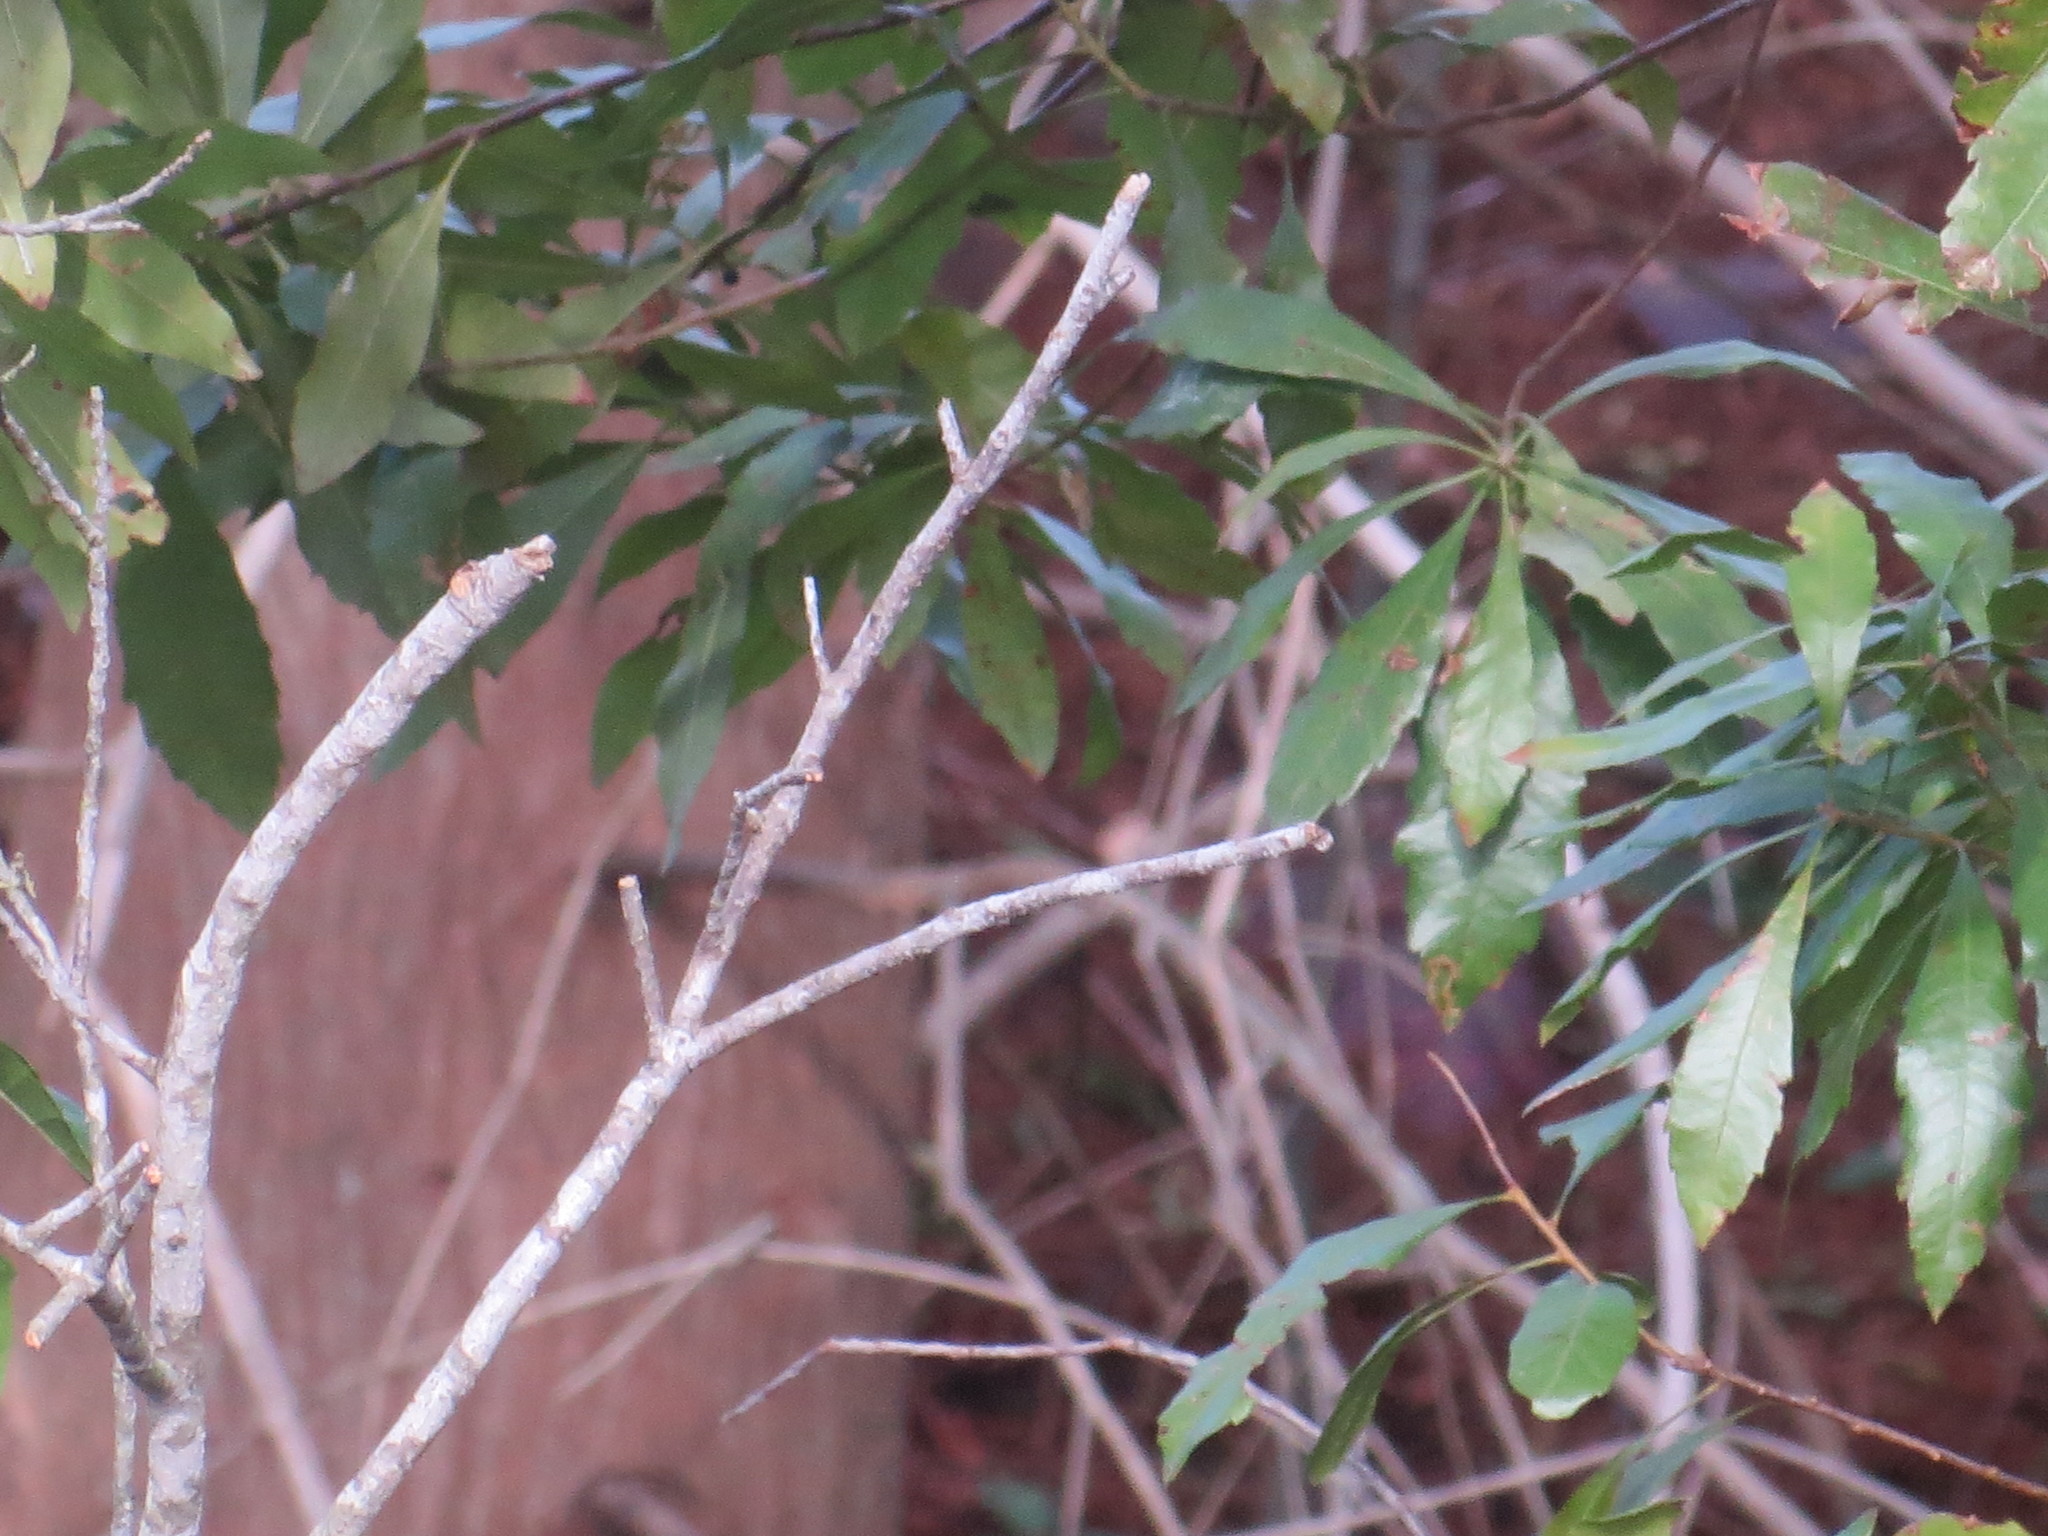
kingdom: Plantae
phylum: Tracheophyta
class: Magnoliopsida
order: Fagales
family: Myricaceae
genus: Morella
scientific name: Morella cerifera
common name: Wax myrtle
